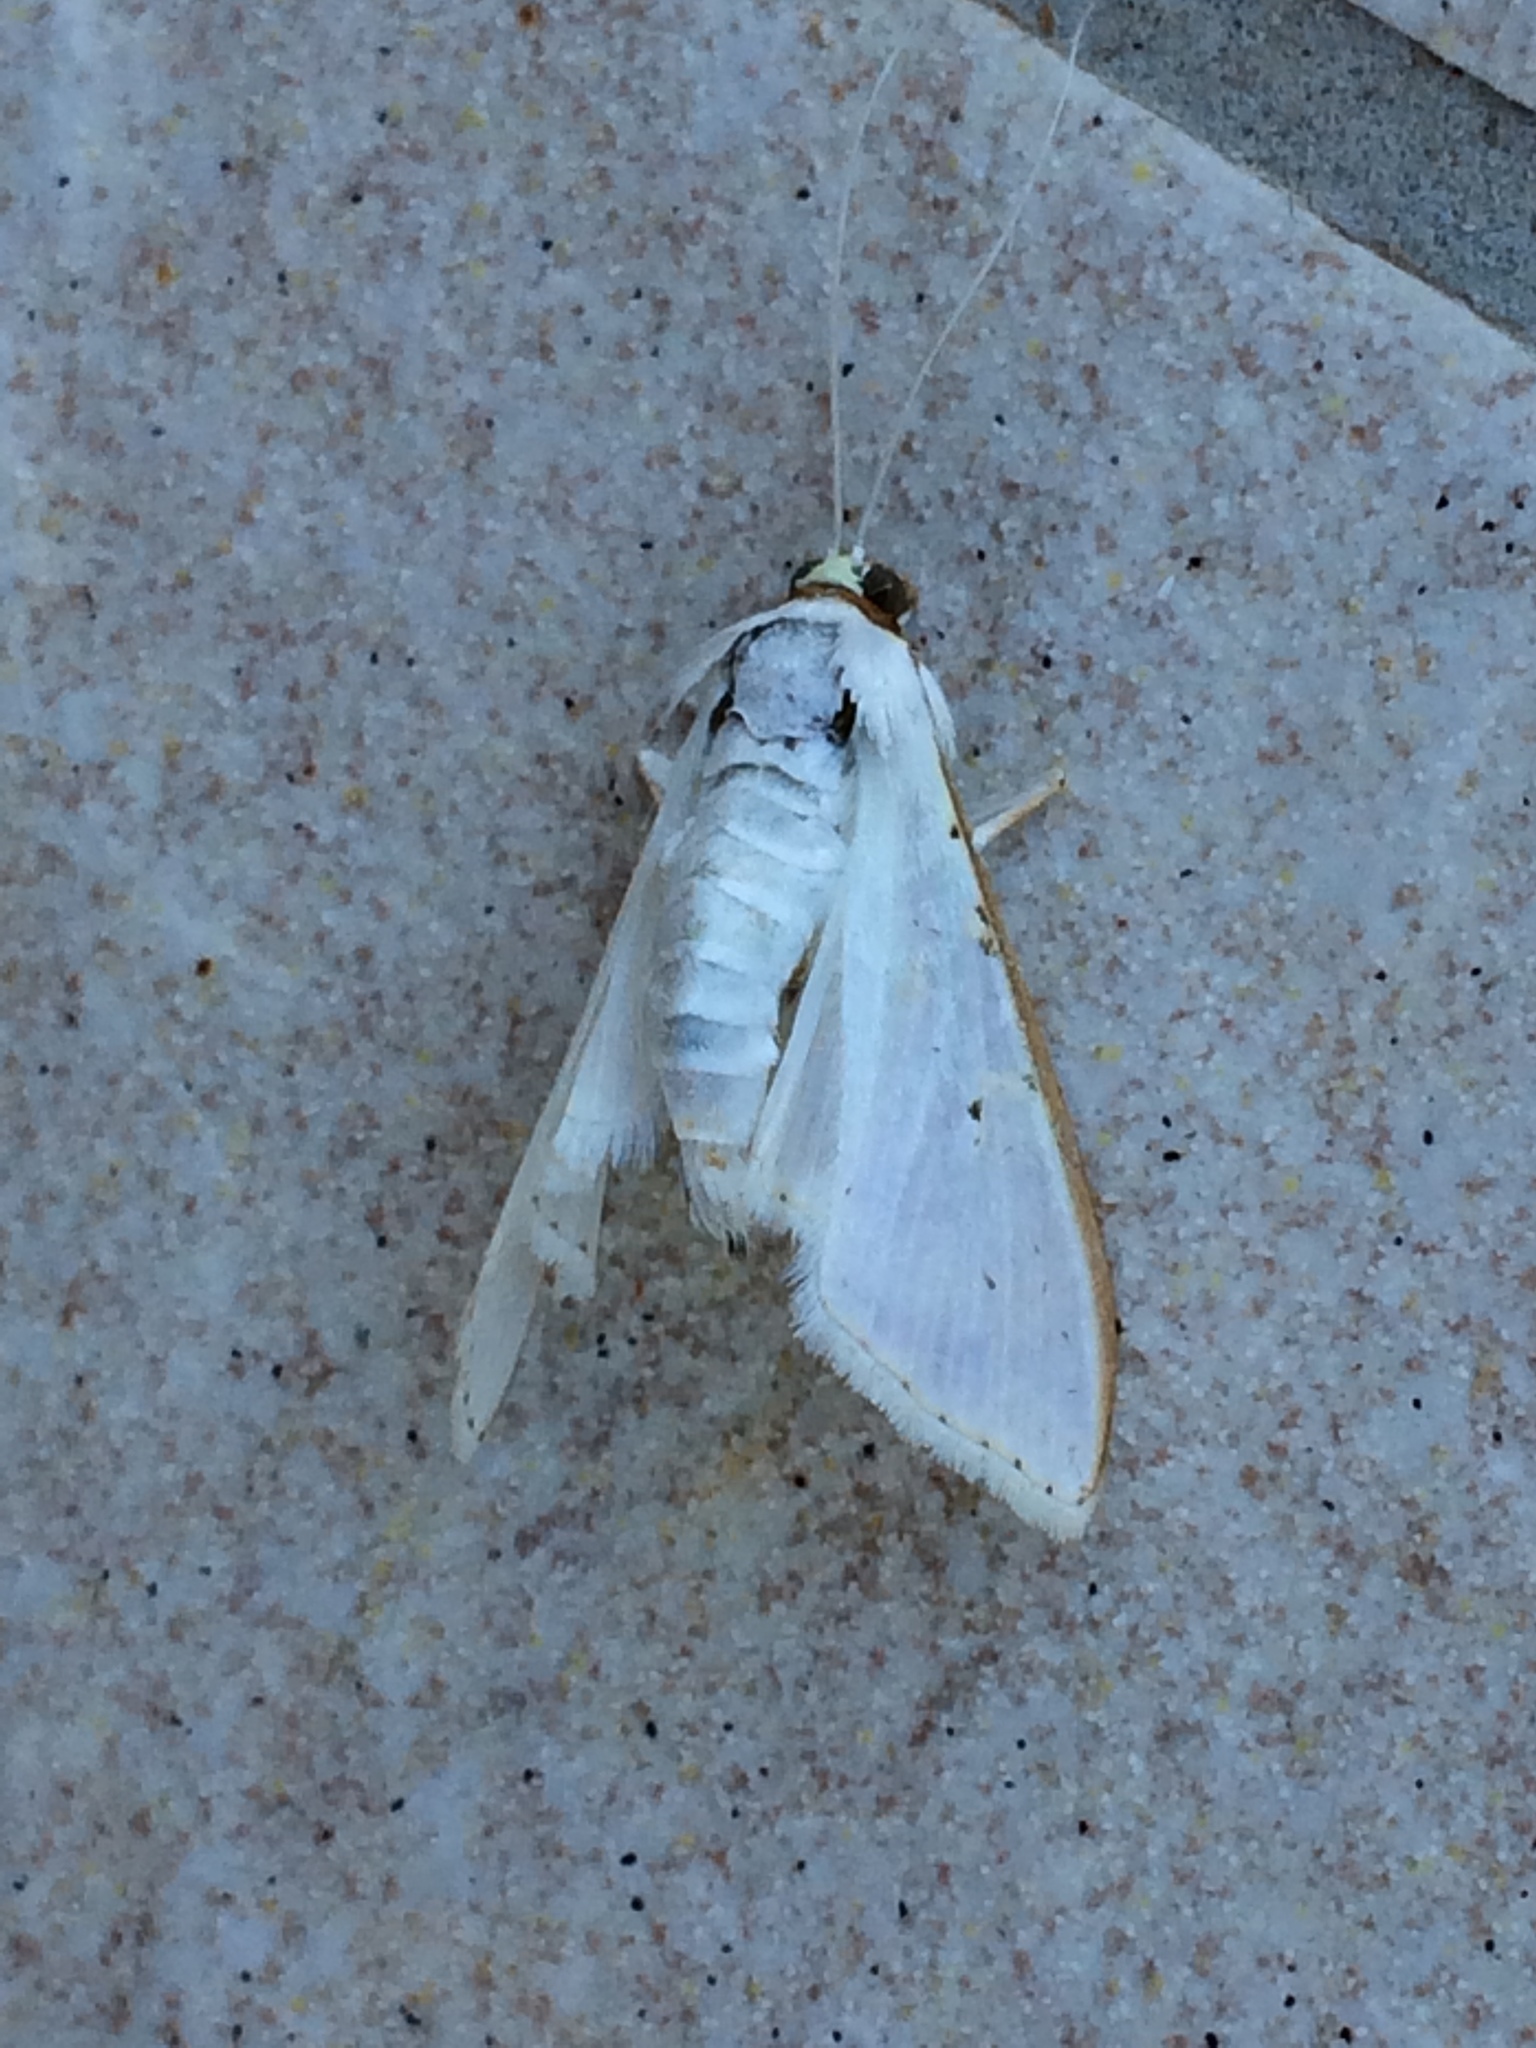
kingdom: Animalia
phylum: Arthropoda
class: Insecta
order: Lepidoptera
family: Crambidae
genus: Palpita
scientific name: Palpita vitrealis
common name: Olive-tree pearl
